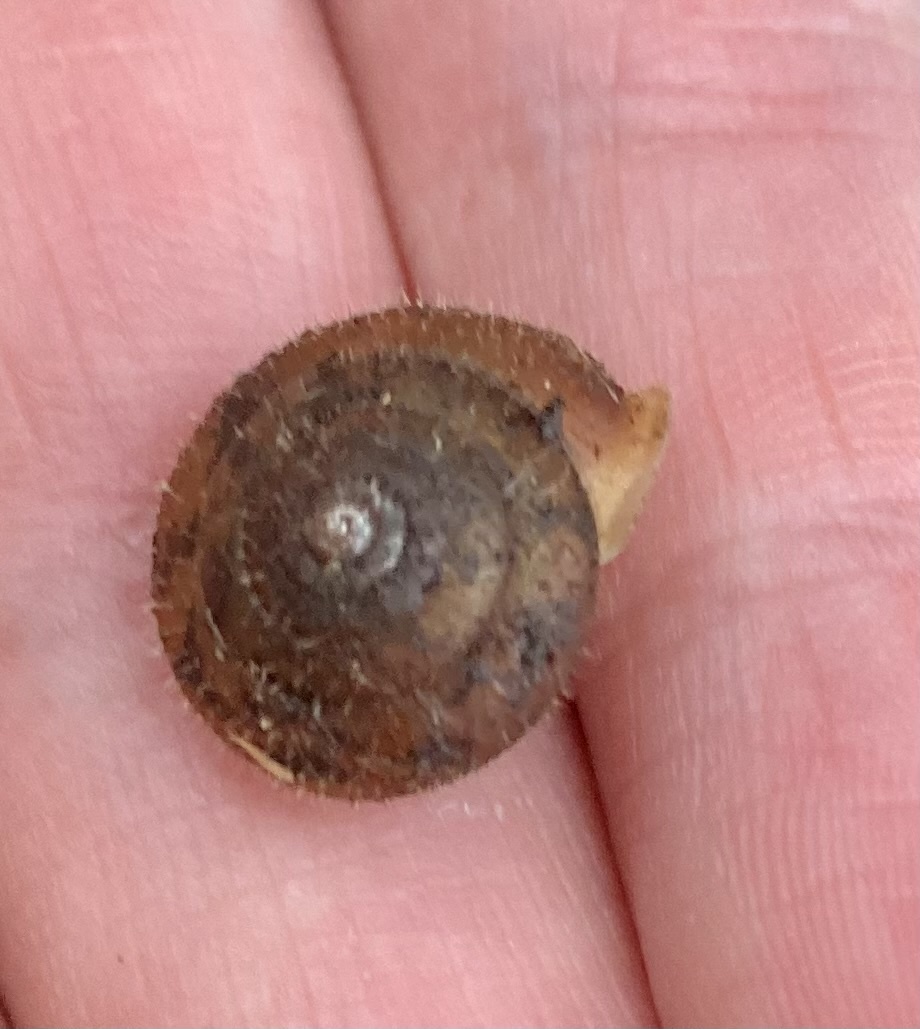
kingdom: Animalia
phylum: Mollusca
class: Gastropoda
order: Stylommatophora
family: Polygyridae
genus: Vespericola
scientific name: Vespericola columbianus
